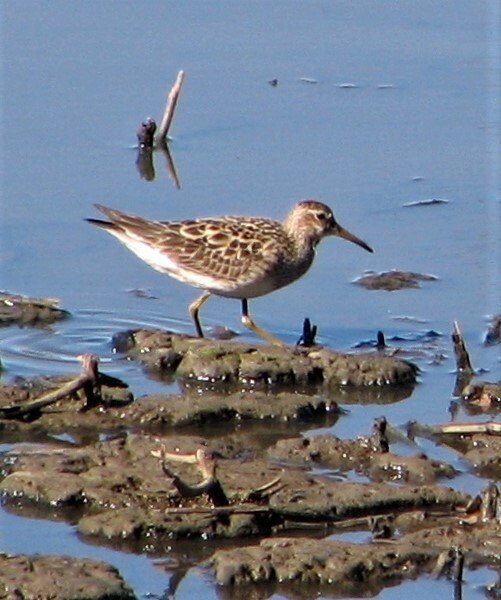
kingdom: Animalia
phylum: Chordata
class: Aves
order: Charadriiformes
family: Scolopacidae
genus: Calidris
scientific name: Calidris melanotos
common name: Pectoral sandpiper
